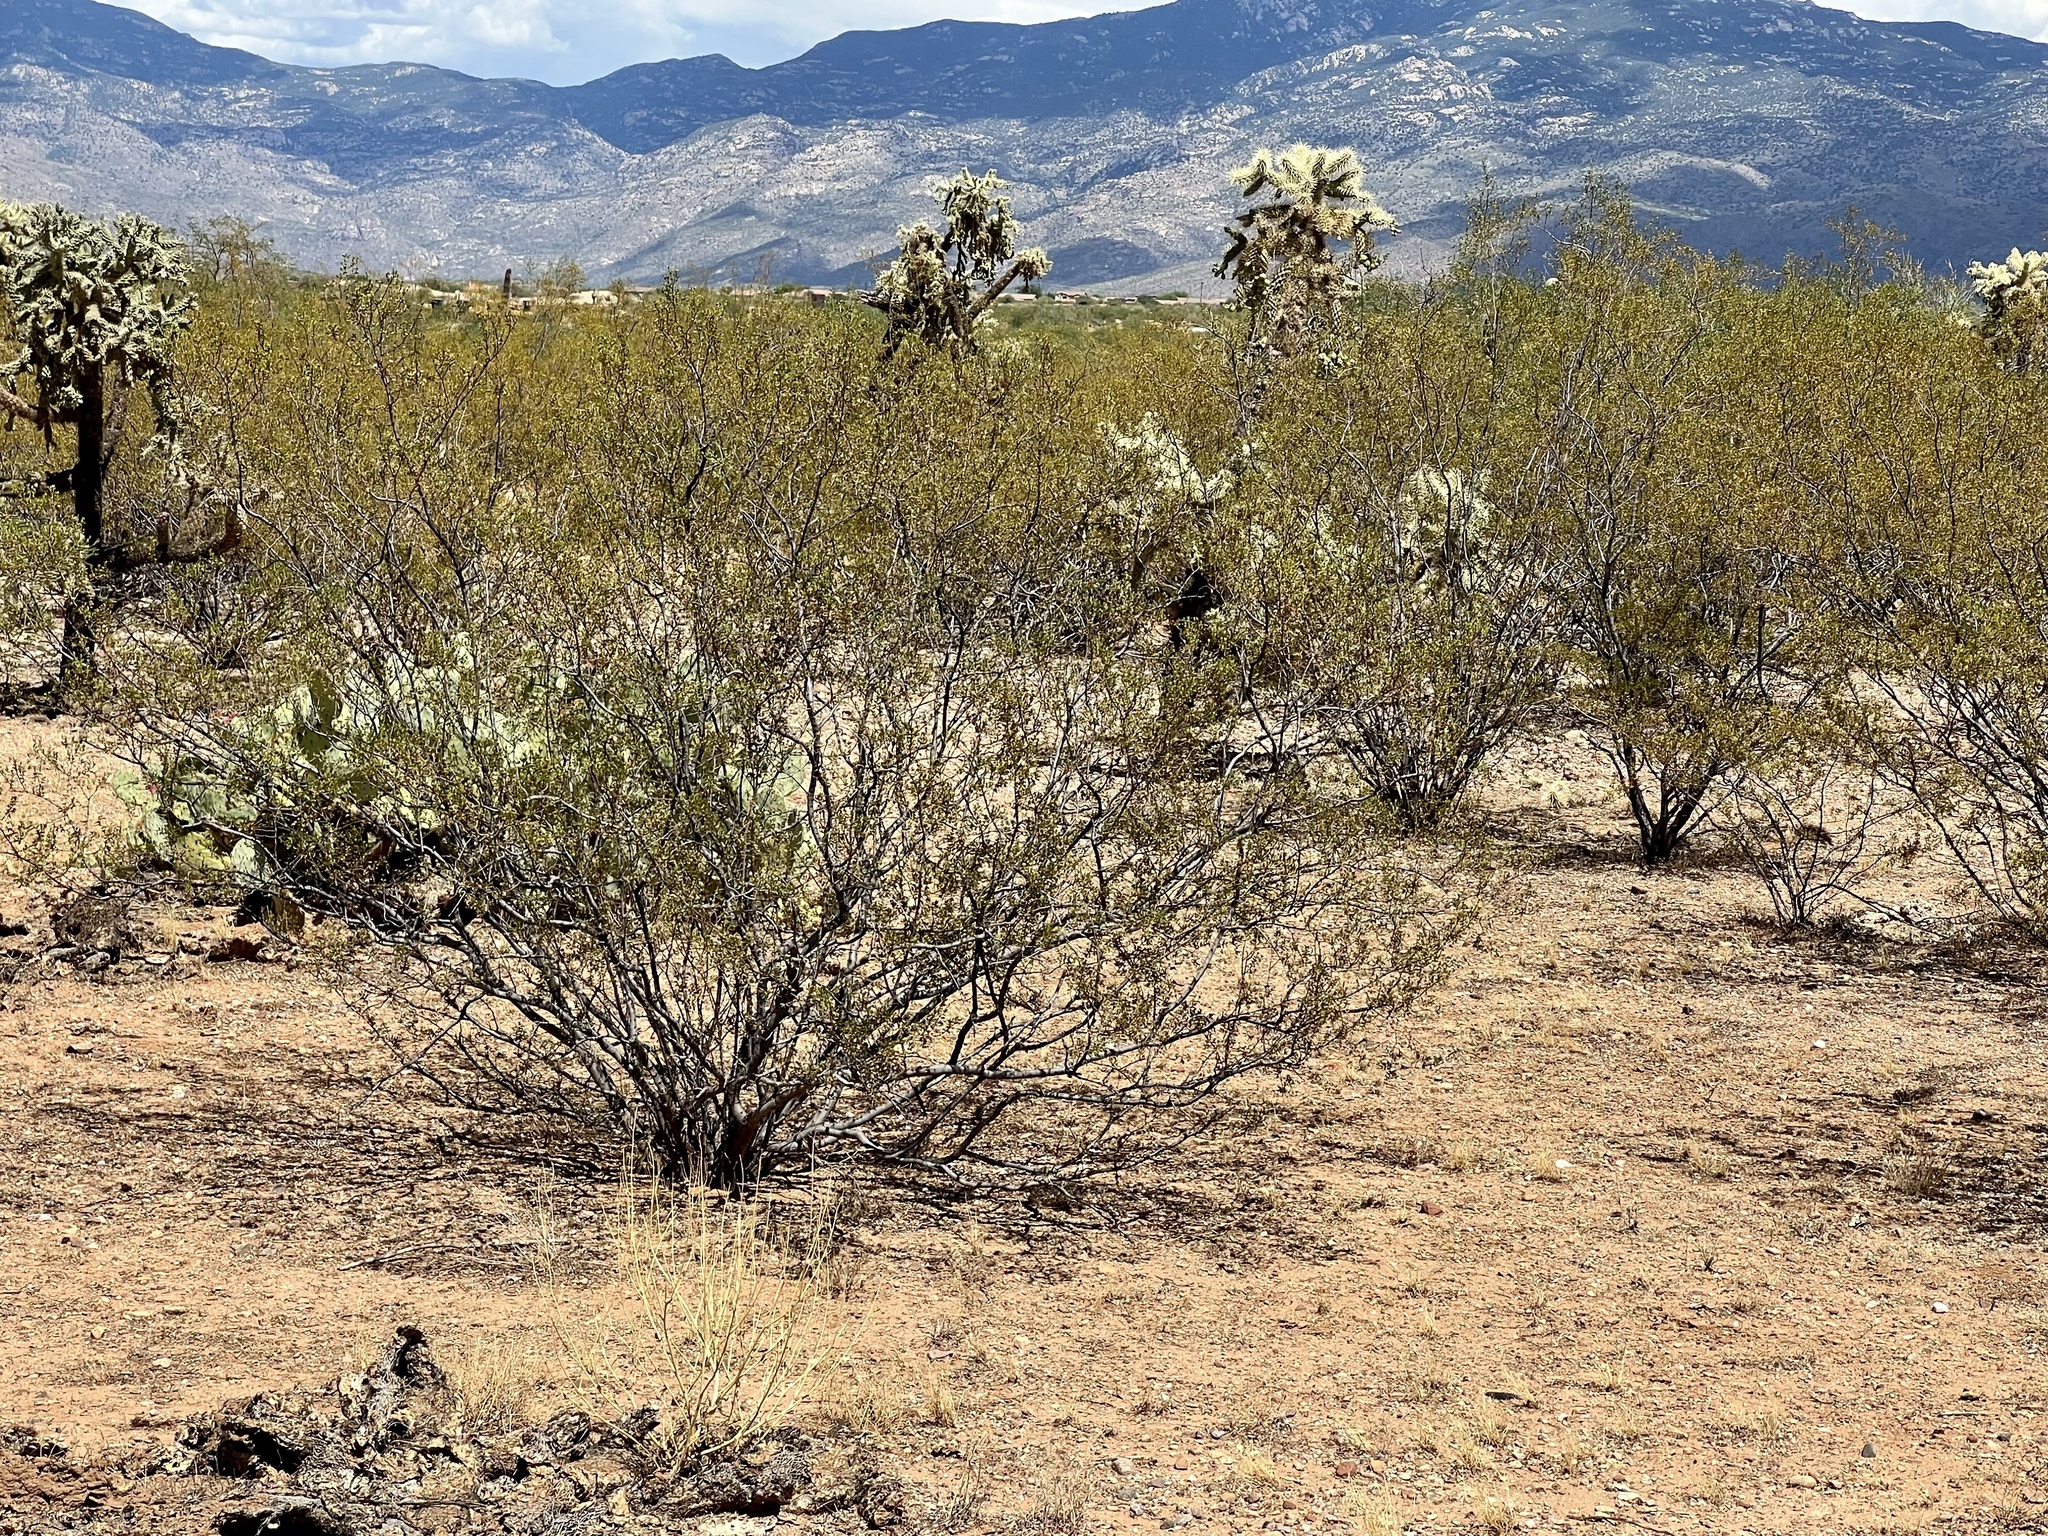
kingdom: Plantae
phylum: Tracheophyta
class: Magnoliopsida
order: Zygophyllales
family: Zygophyllaceae
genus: Larrea
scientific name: Larrea tridentata
